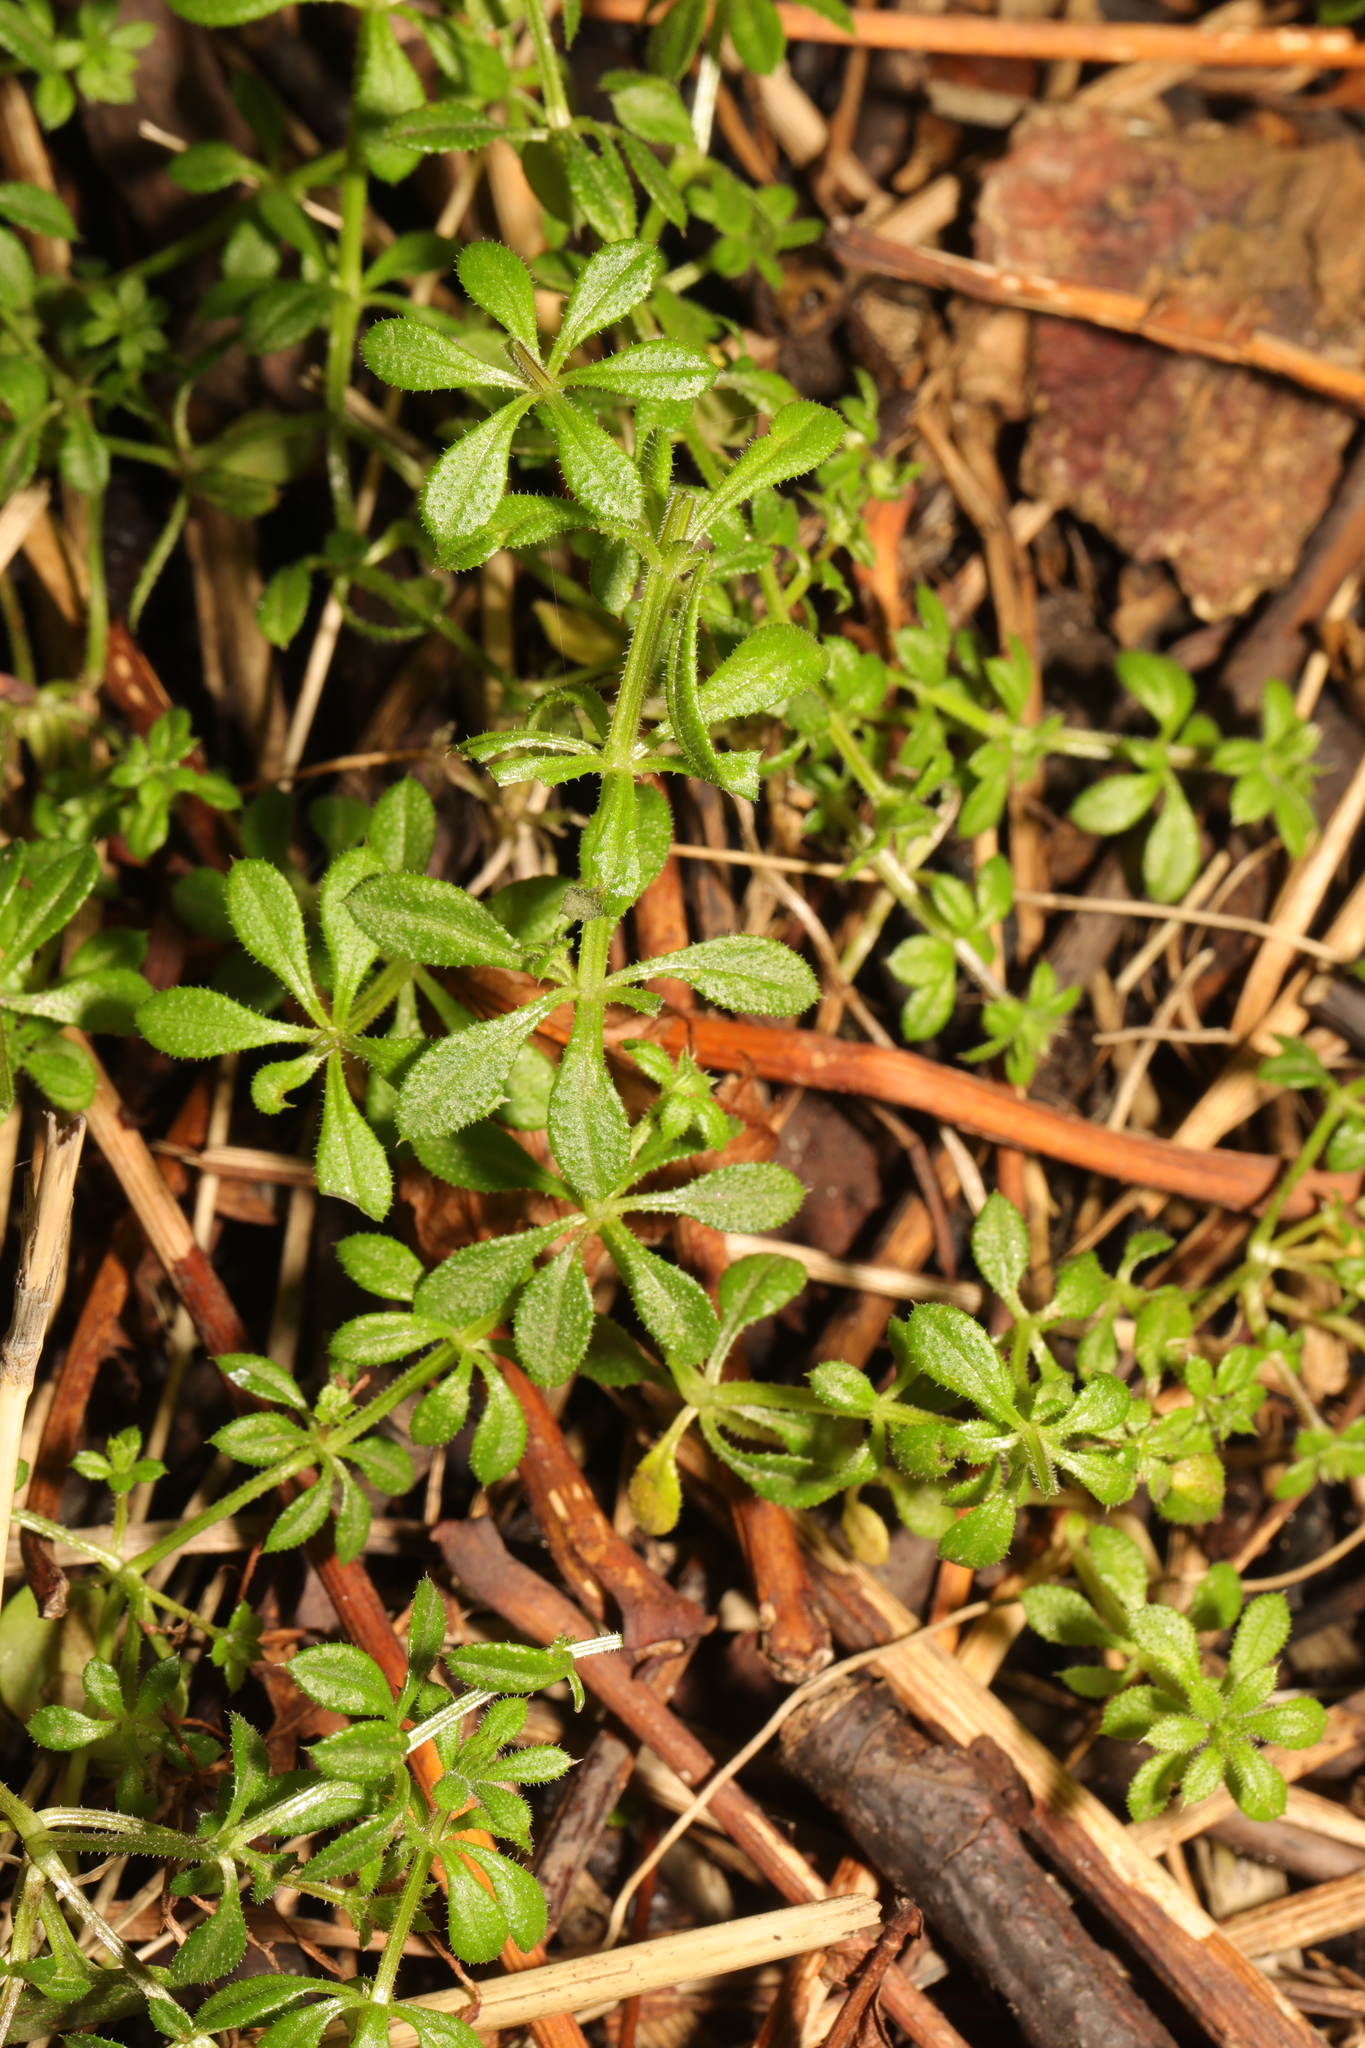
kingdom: Plantae
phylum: Tracheophyta
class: Magnoliopsida
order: Gentianales
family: Rubiaceae
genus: Galium
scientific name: Galium aparine
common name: Cleavers
